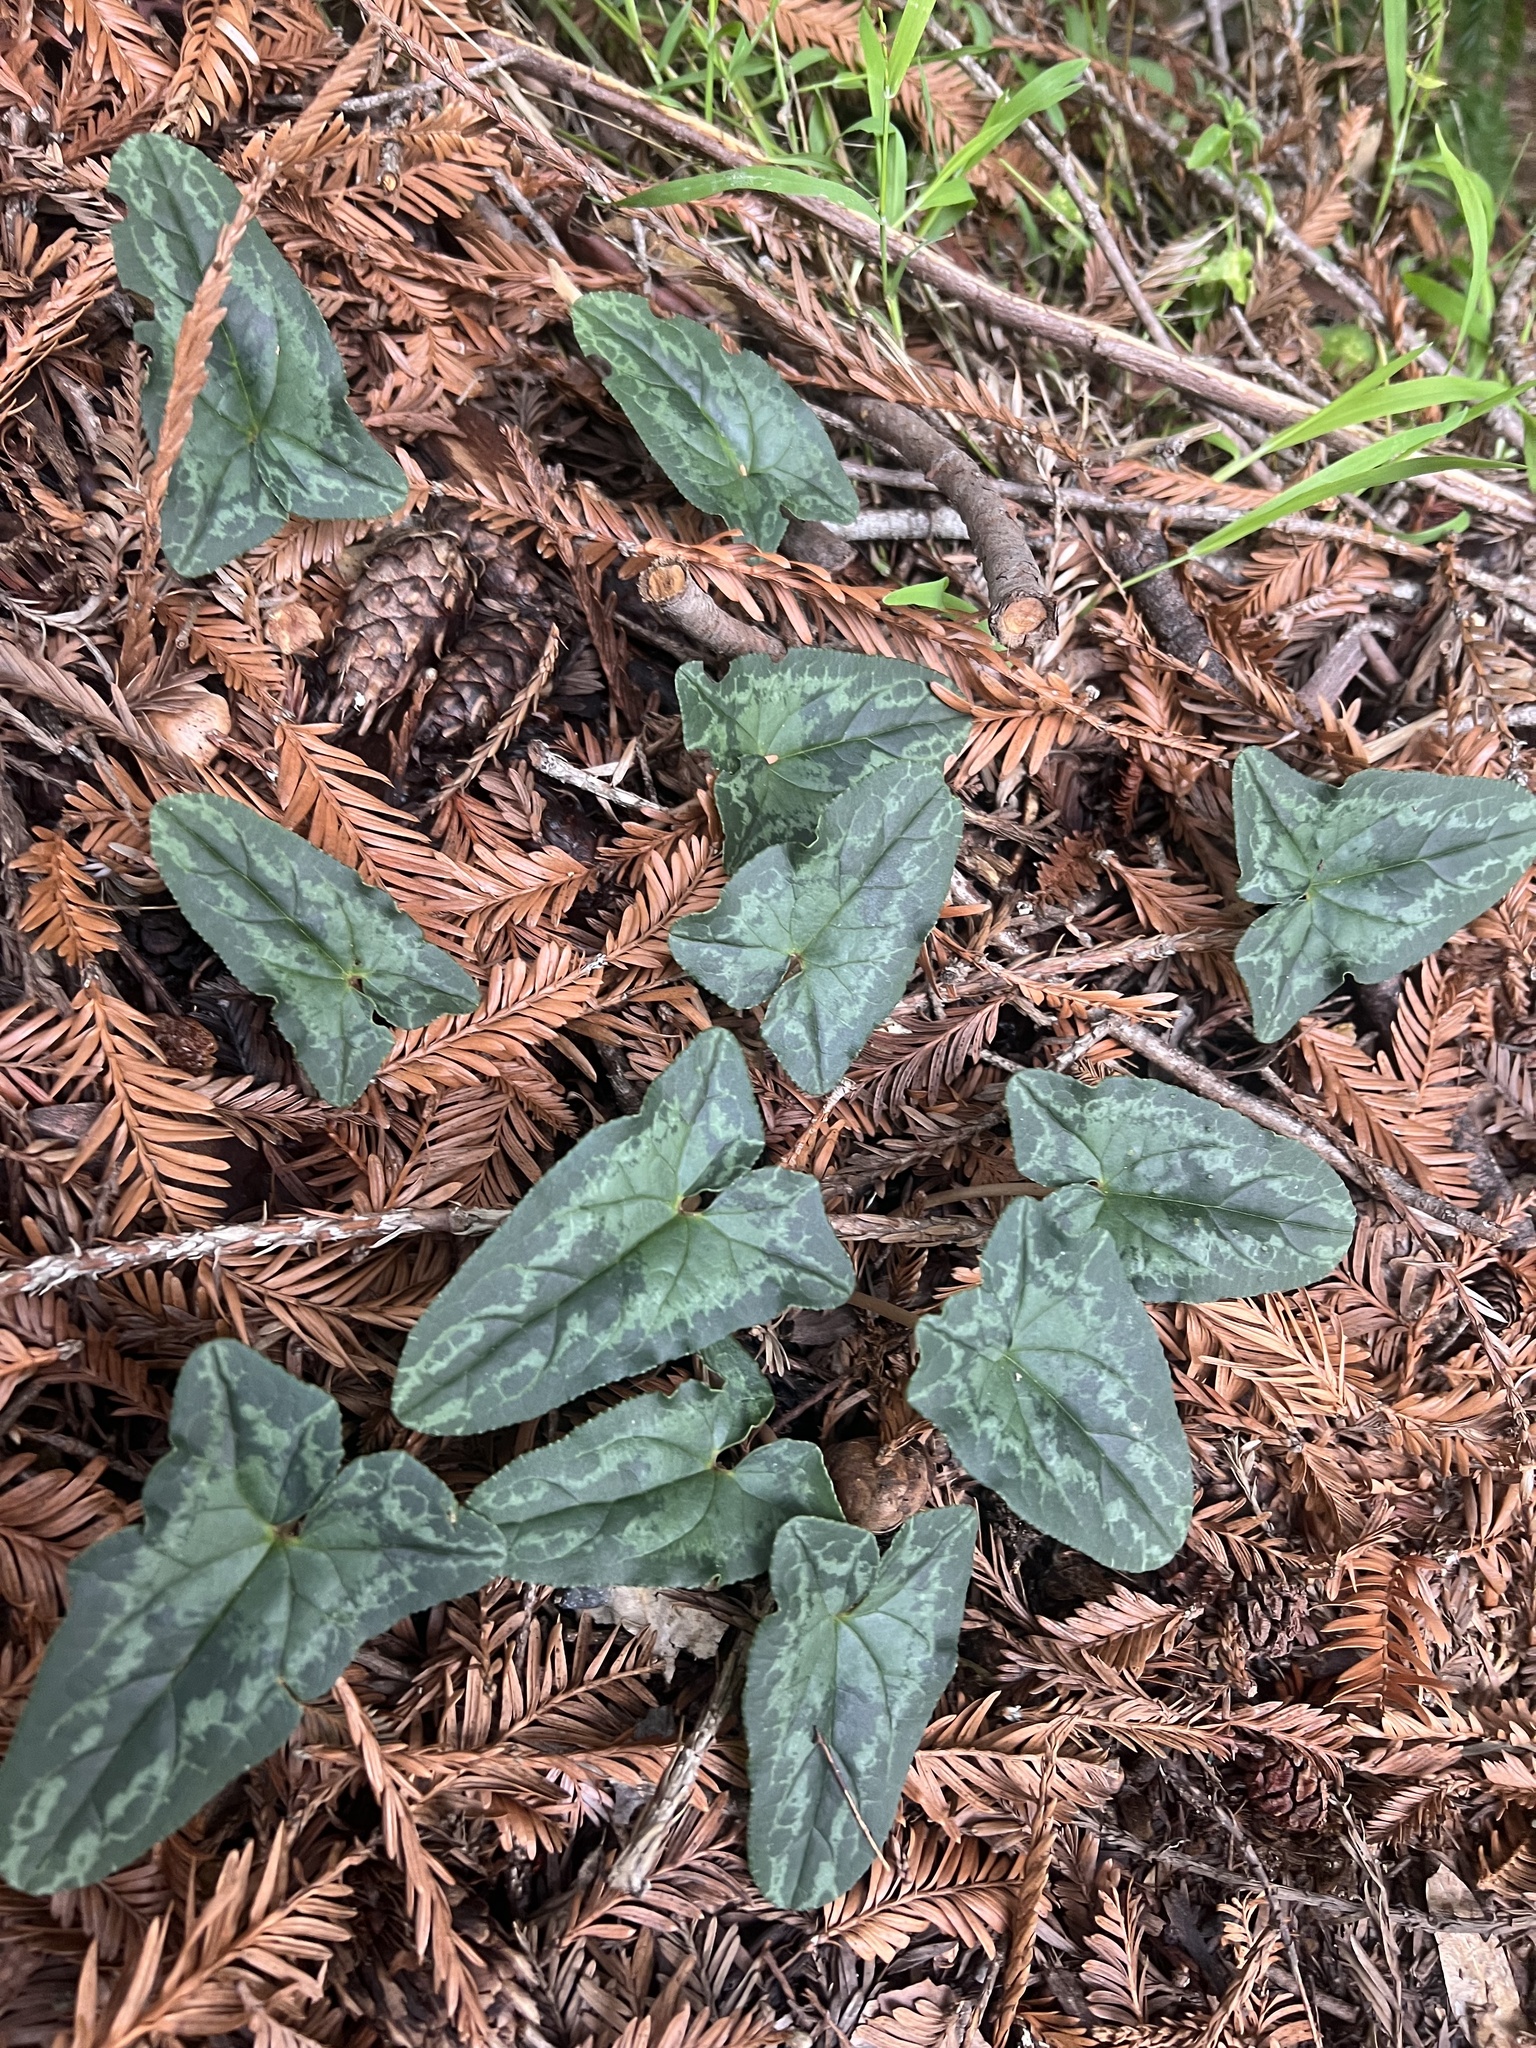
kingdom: Plantae
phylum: Tracheophyta
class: Magnoliopsida
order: Ericales
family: Primulaceae
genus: Cyclamen
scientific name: Cyclamen hederifolium
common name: Sowbread
